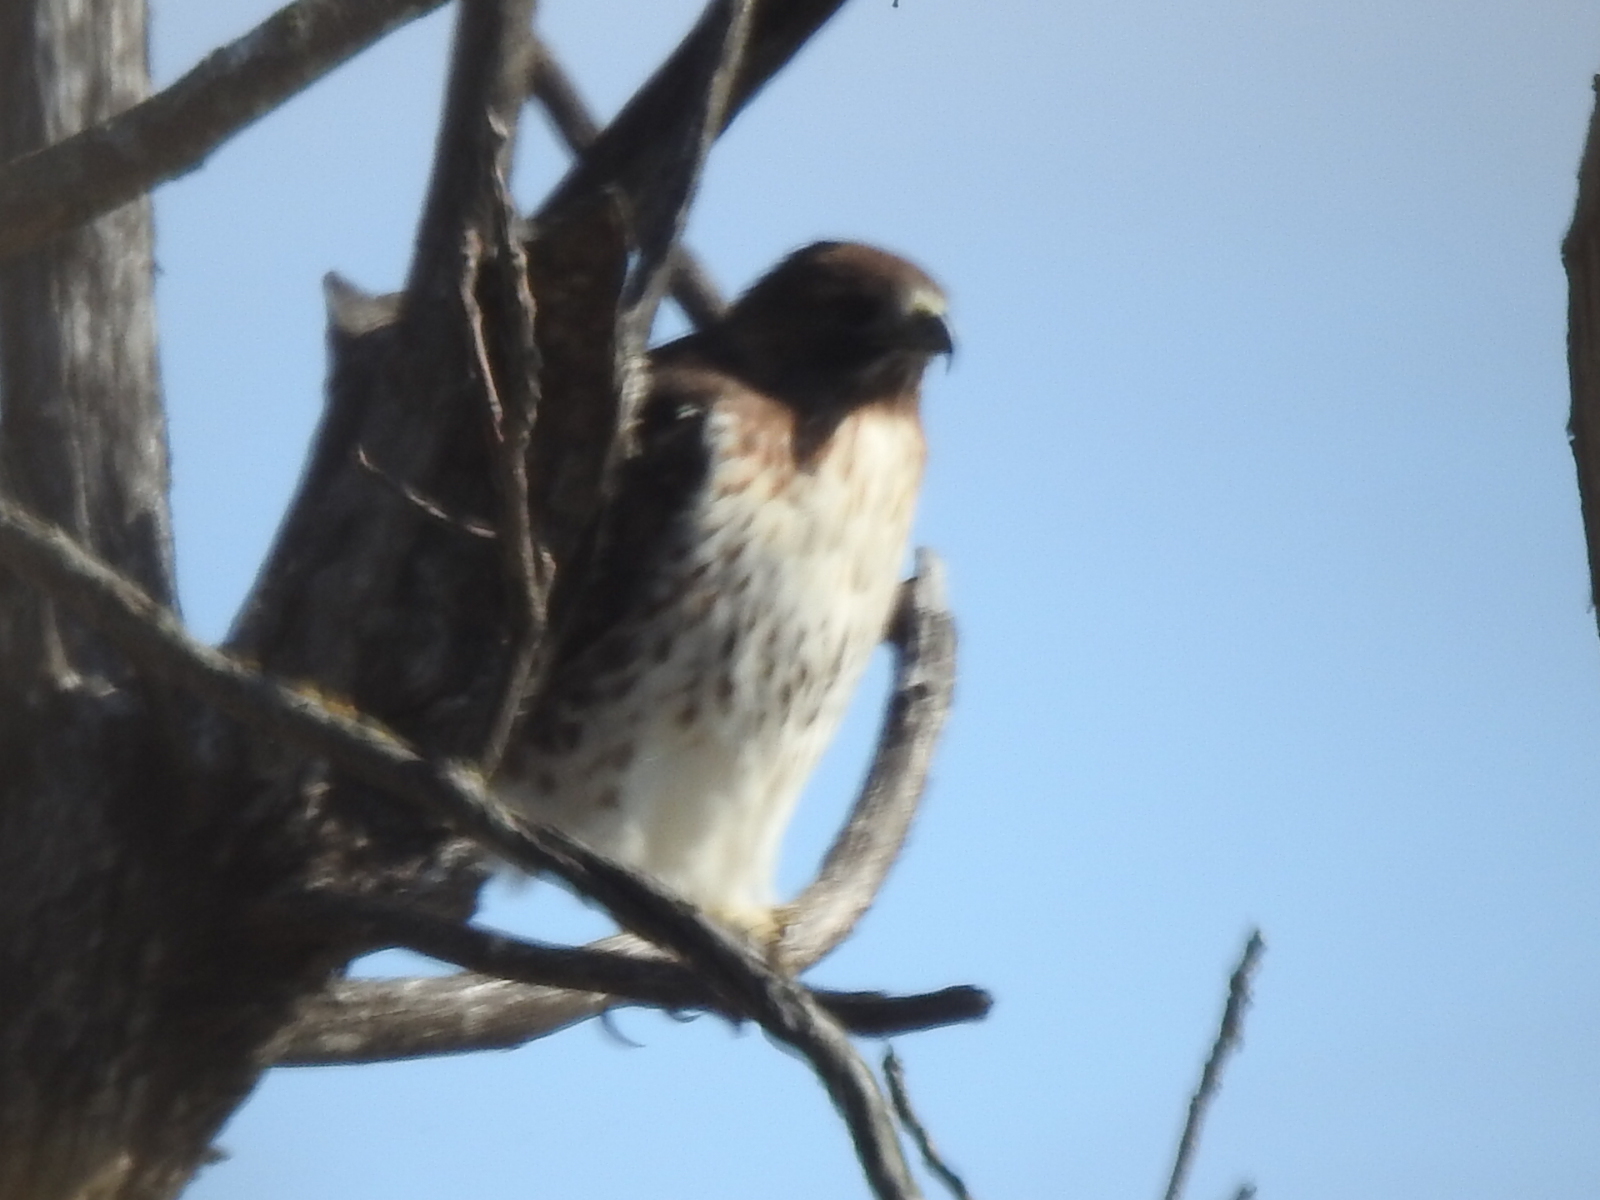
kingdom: Animalia
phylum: Chordata
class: Aves
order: Accipitriformes
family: Accipitridae
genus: Buteo
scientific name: Buteo jamaicensis
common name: Red-tailed hawk
